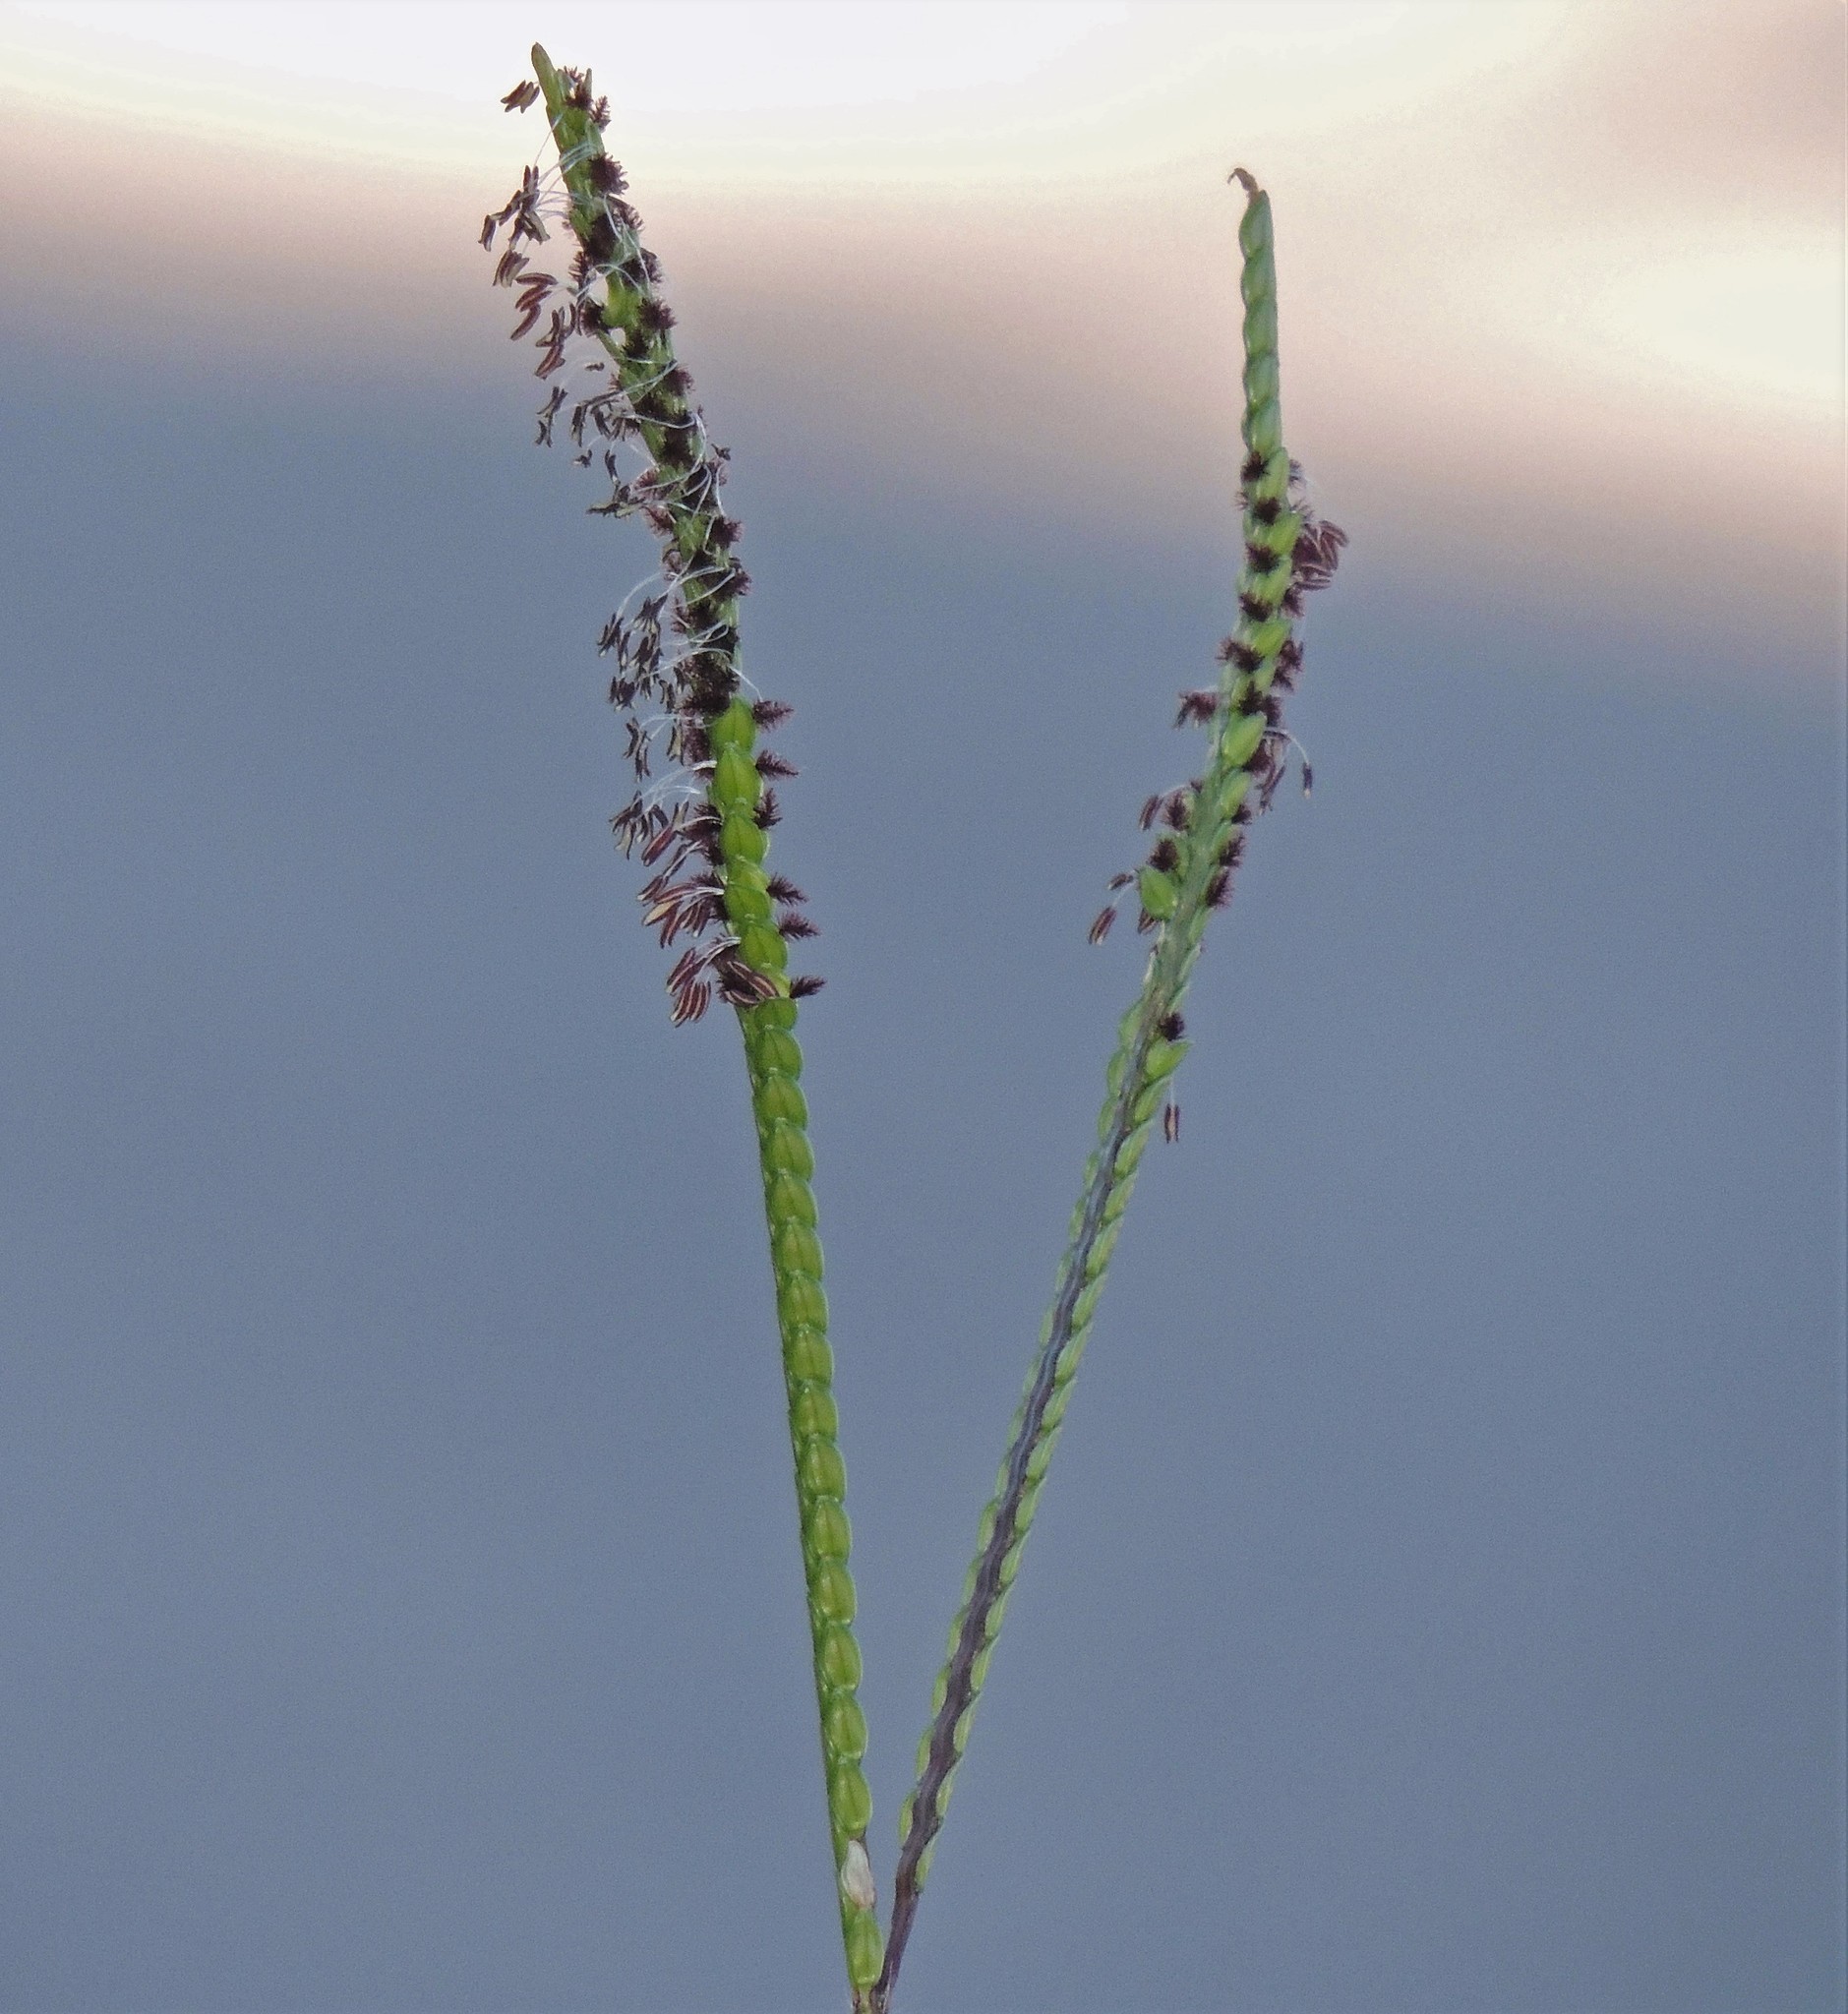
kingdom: Plantae
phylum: Tracheophyta
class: Liliopsida
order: Poales
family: Poaceae
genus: Paspalum
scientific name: Paspalum notatum
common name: Bahiagrass
